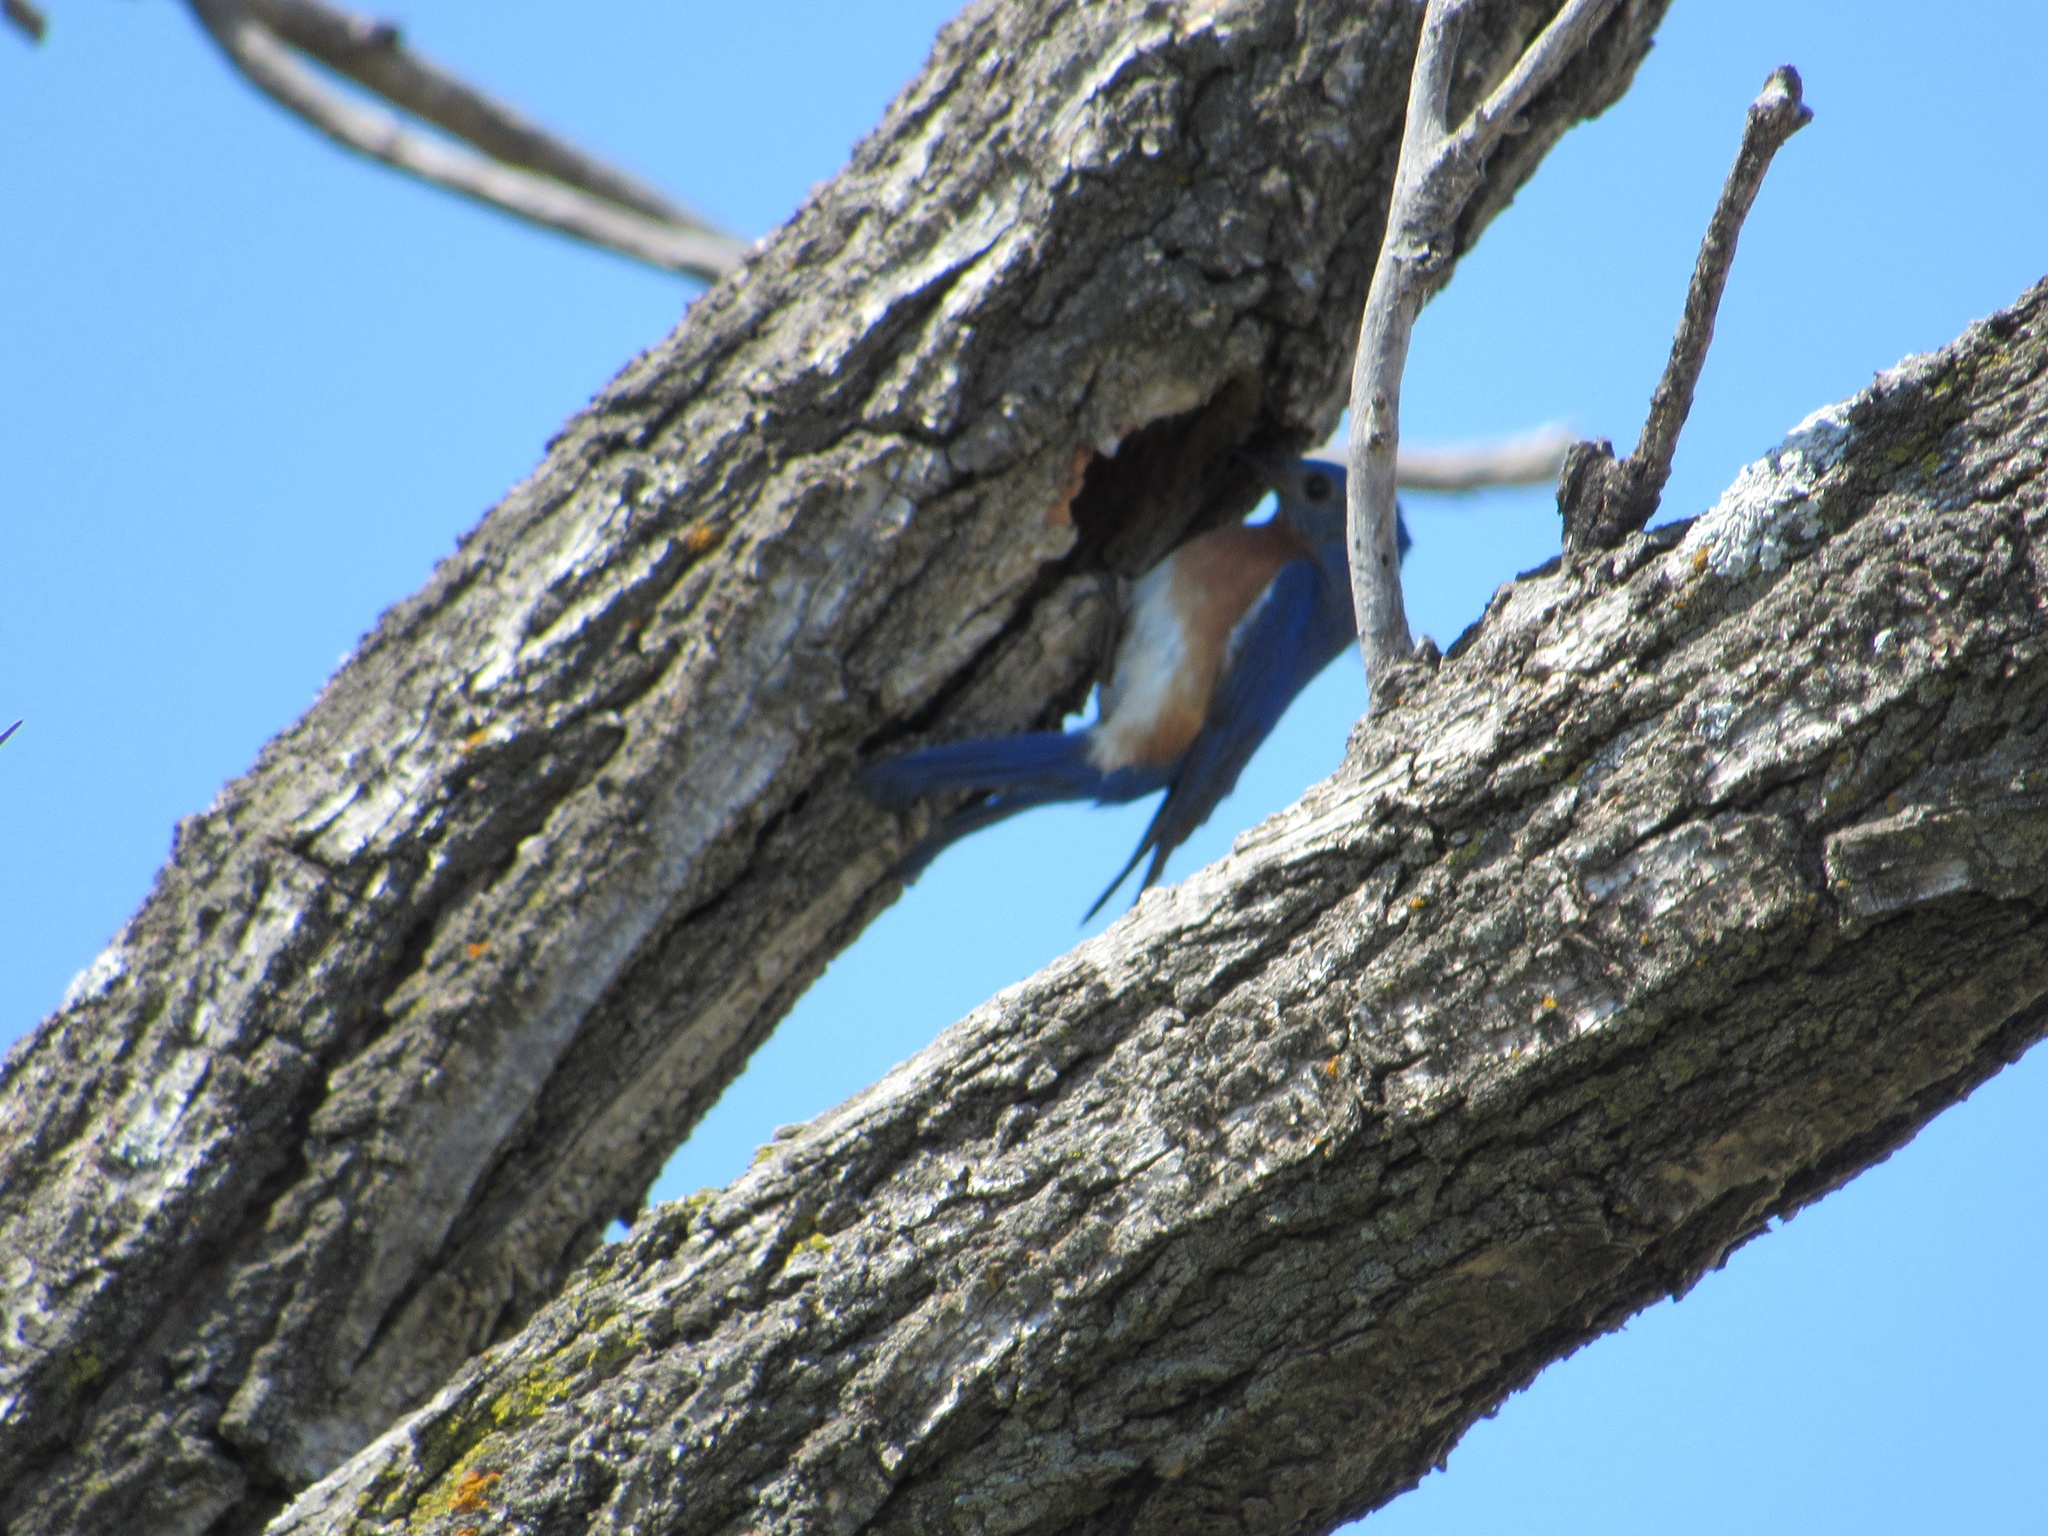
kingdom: Animalia
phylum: Chordata
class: Aves
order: Passeriformes
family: Turdidae
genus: Sialia
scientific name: Sialia sialis
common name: Eastern bluebird
